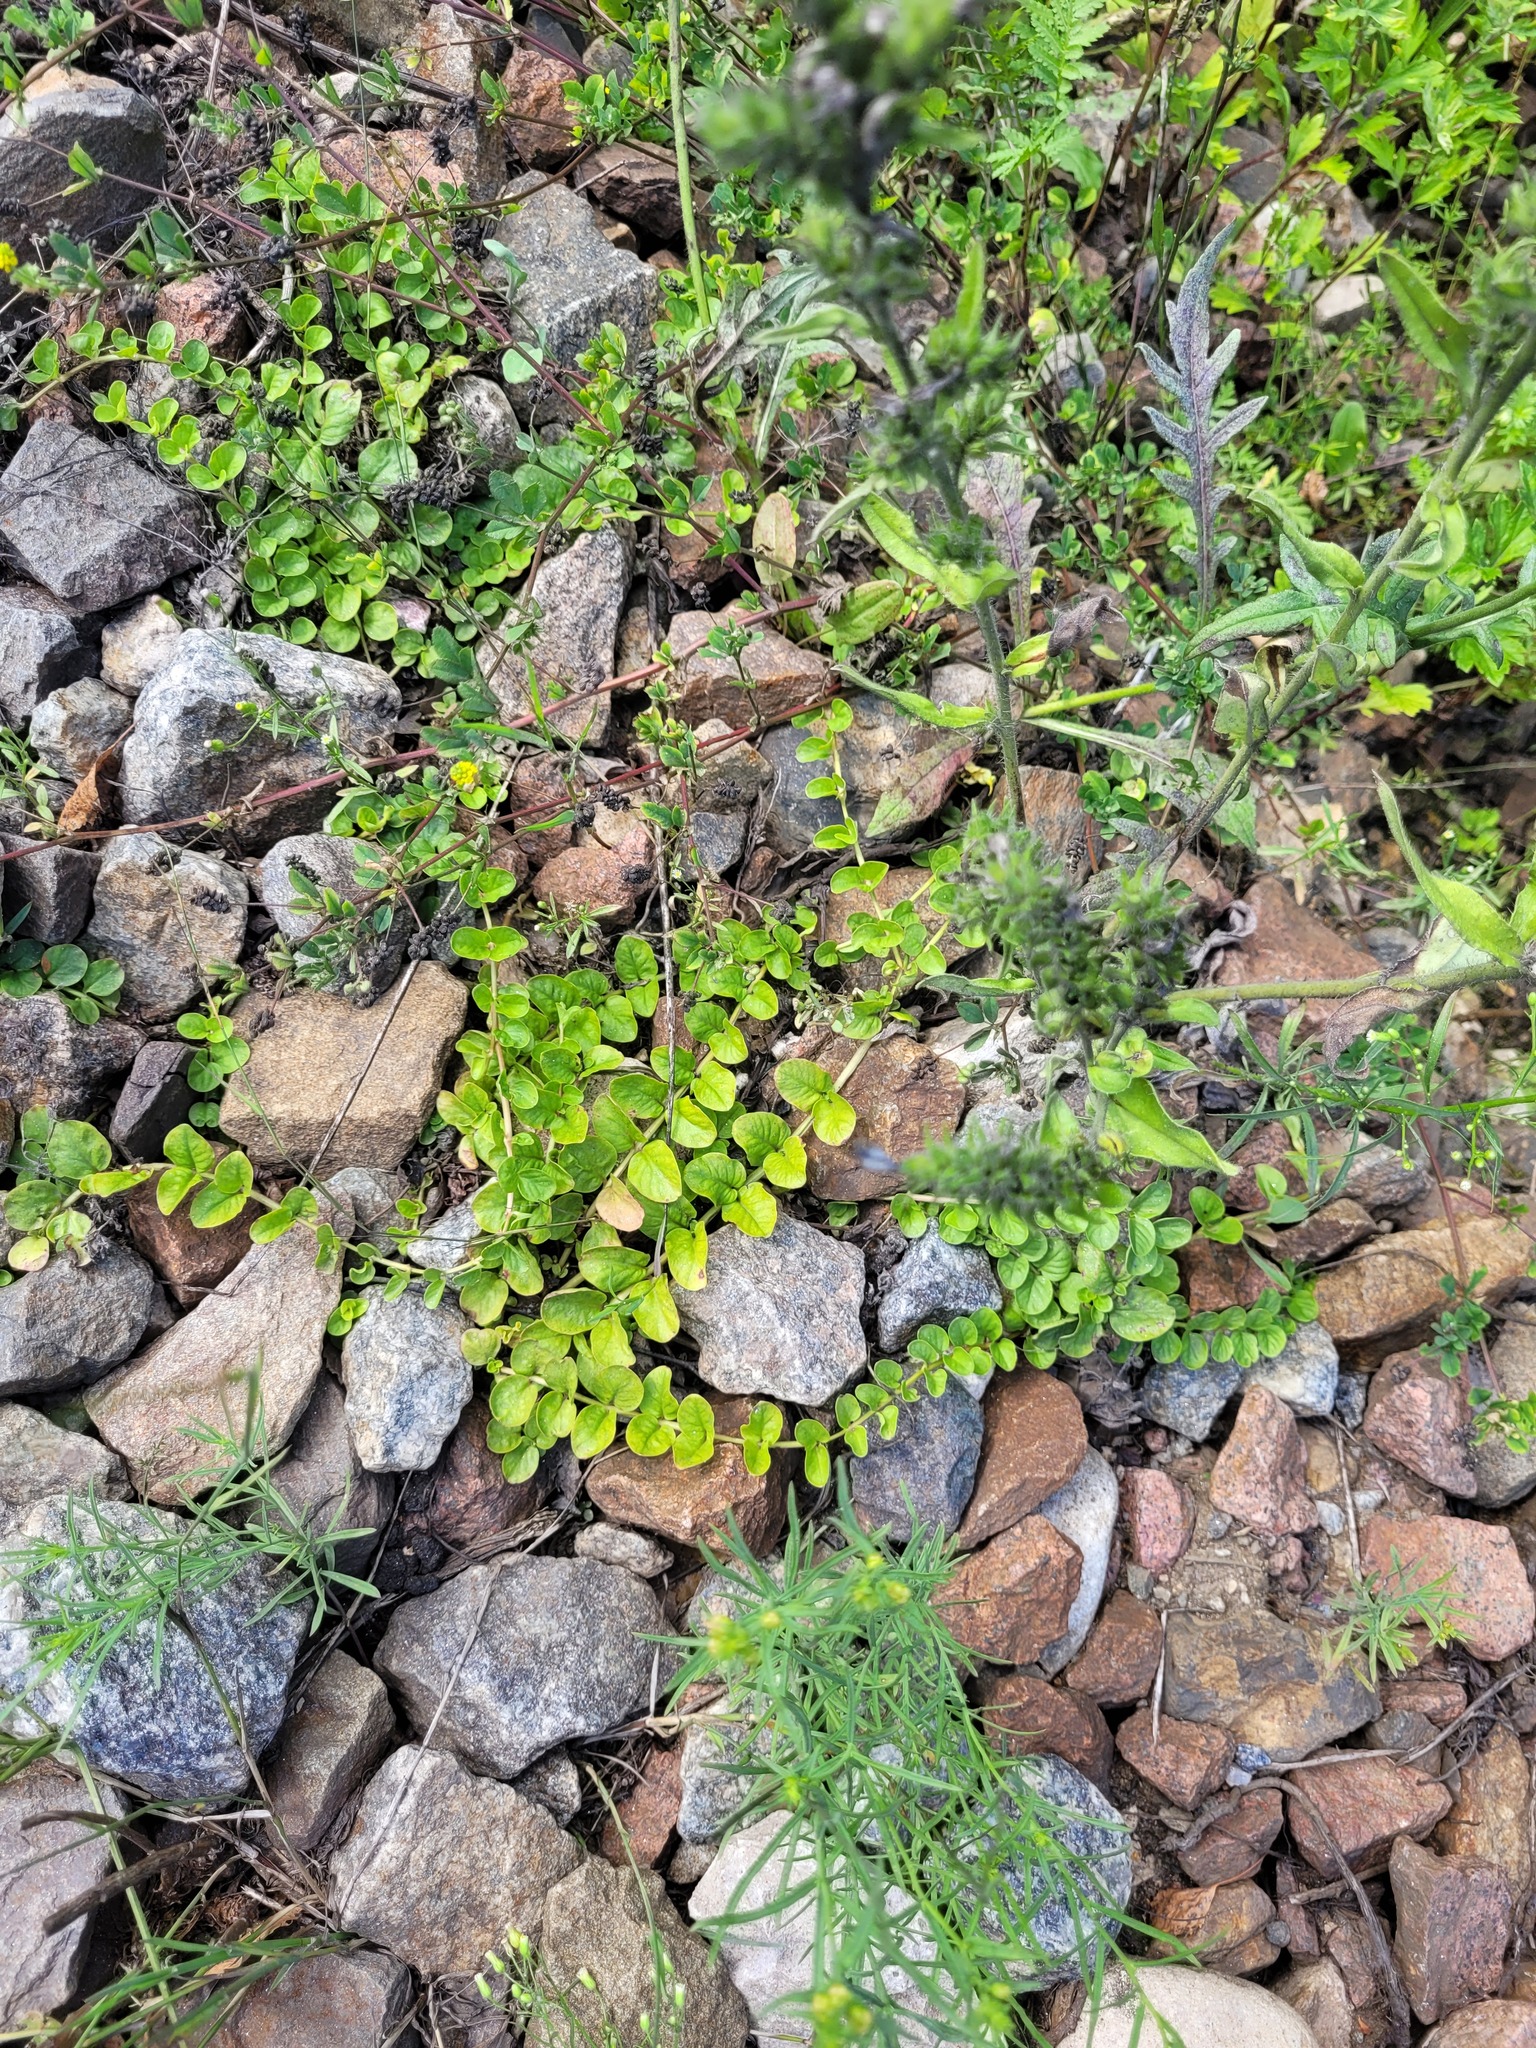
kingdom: Plantae
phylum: Tracheophyta
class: Magnoliopsida
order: Ericales
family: Primulaceae
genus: Lysimachia
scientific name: Lysimachia nummularia
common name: Moneywort
